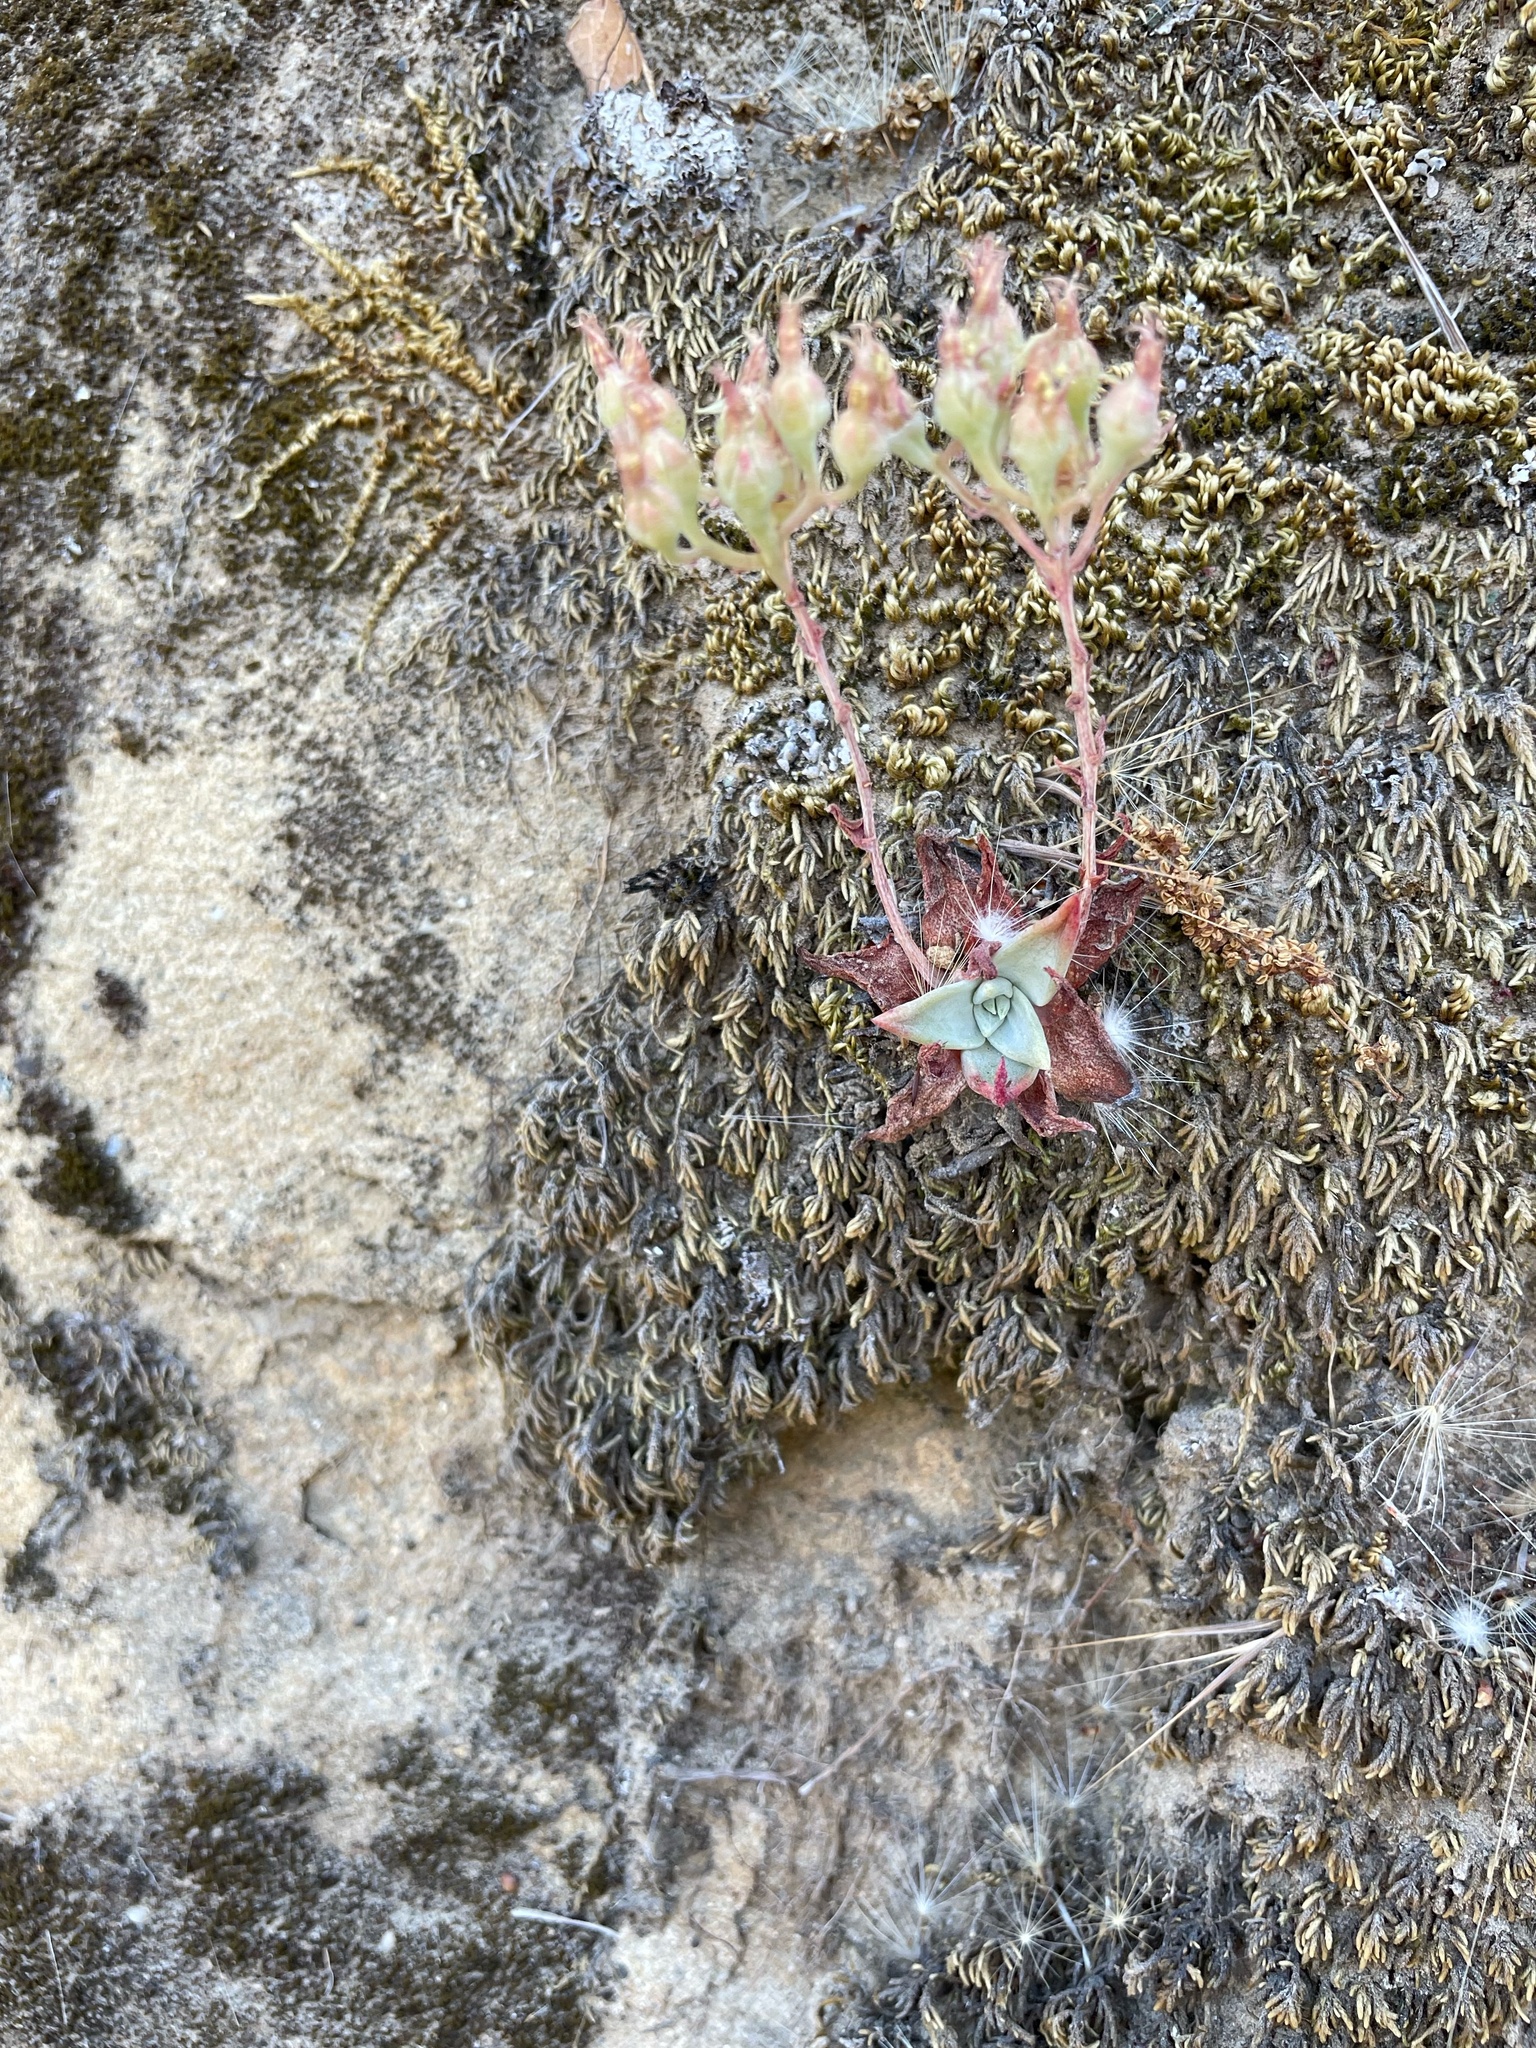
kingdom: Plantae
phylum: Tracheophyta
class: Magnoliopsida
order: Saxifragales
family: Crassulaceae
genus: Dudleya
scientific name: Dudleya cymosa
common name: Canyon dudleya
